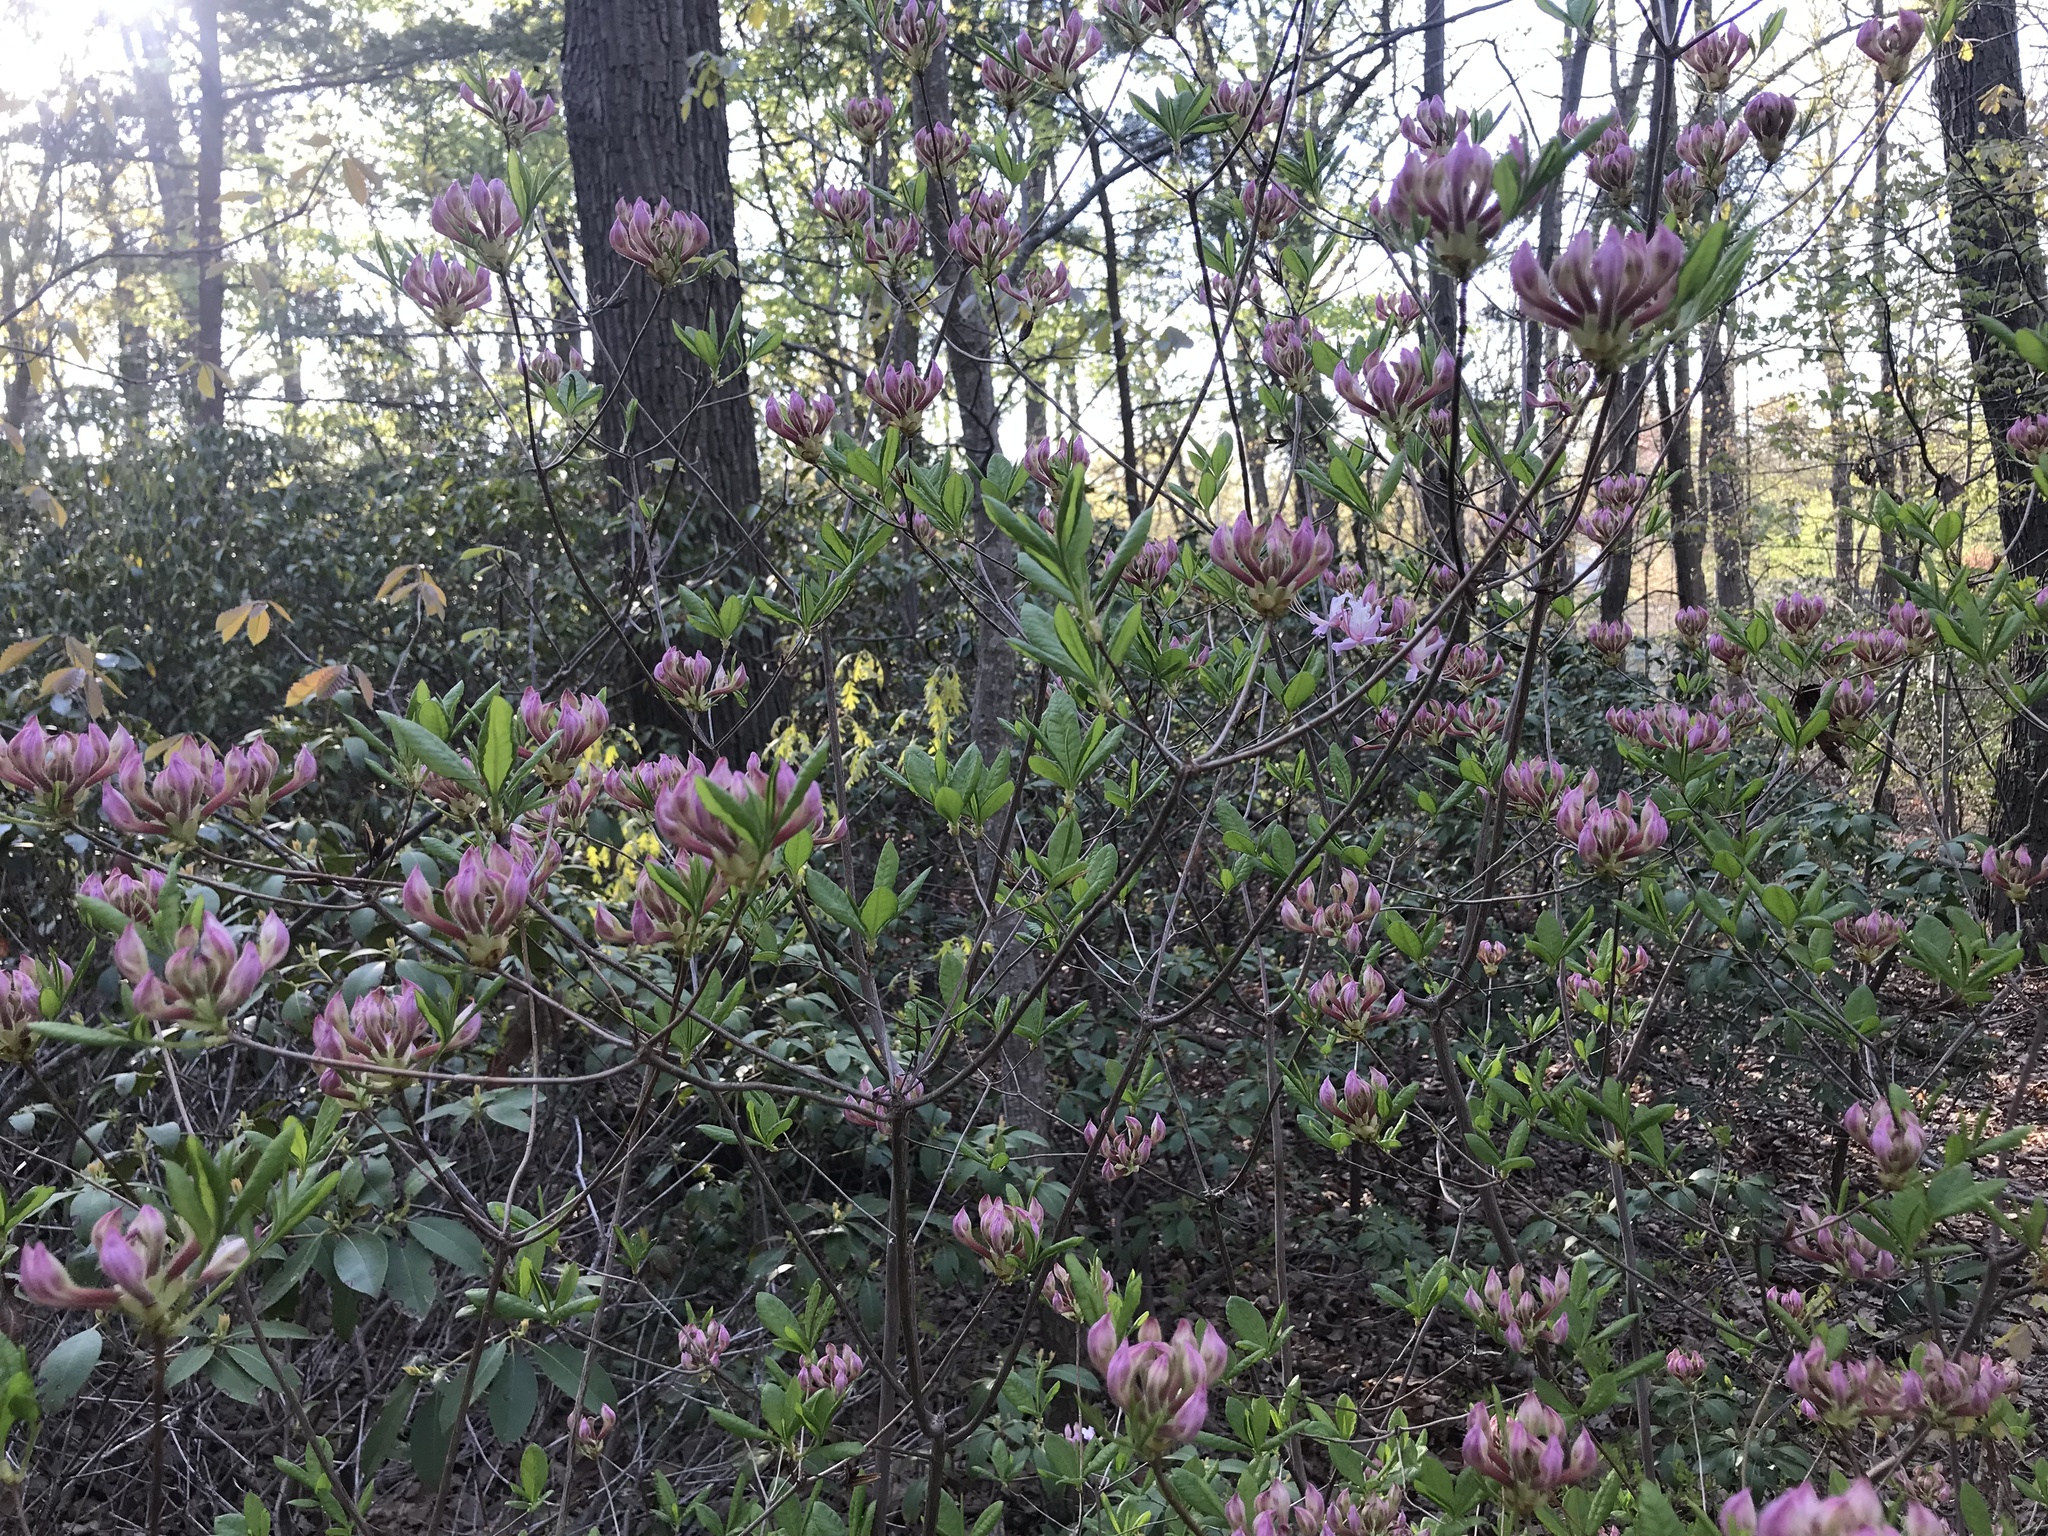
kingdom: Plantae
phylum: Tracheophyta
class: Magnoliopsida
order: Ericales
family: Ericaceae
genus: Rhododendron
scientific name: Rhododendron periclymenoides
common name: Election-pink
